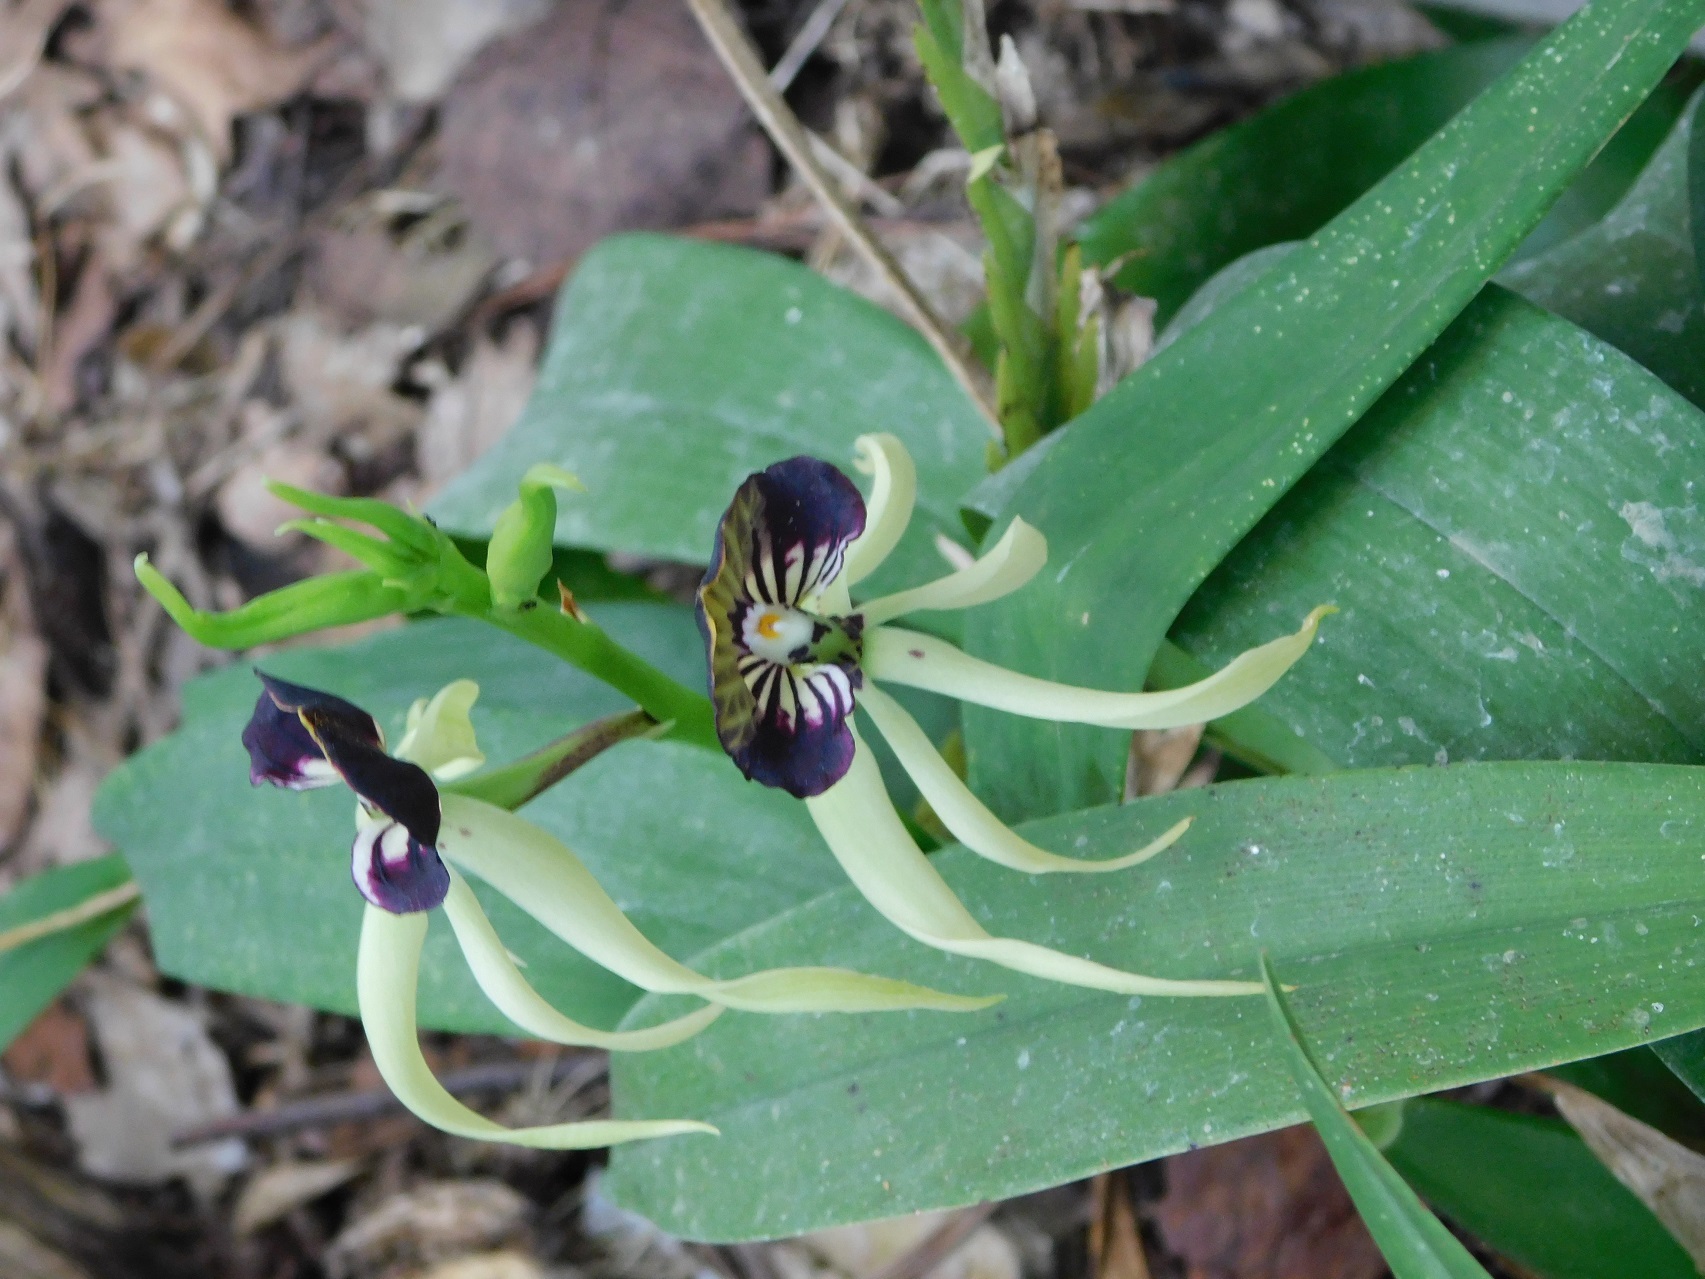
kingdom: Plantae
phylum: Tracheophyta
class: Liliopsida
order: Asparagales
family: Orchidaceae
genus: Prosthechea
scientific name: Prosthechea cochleata
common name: Clamshell orchid
